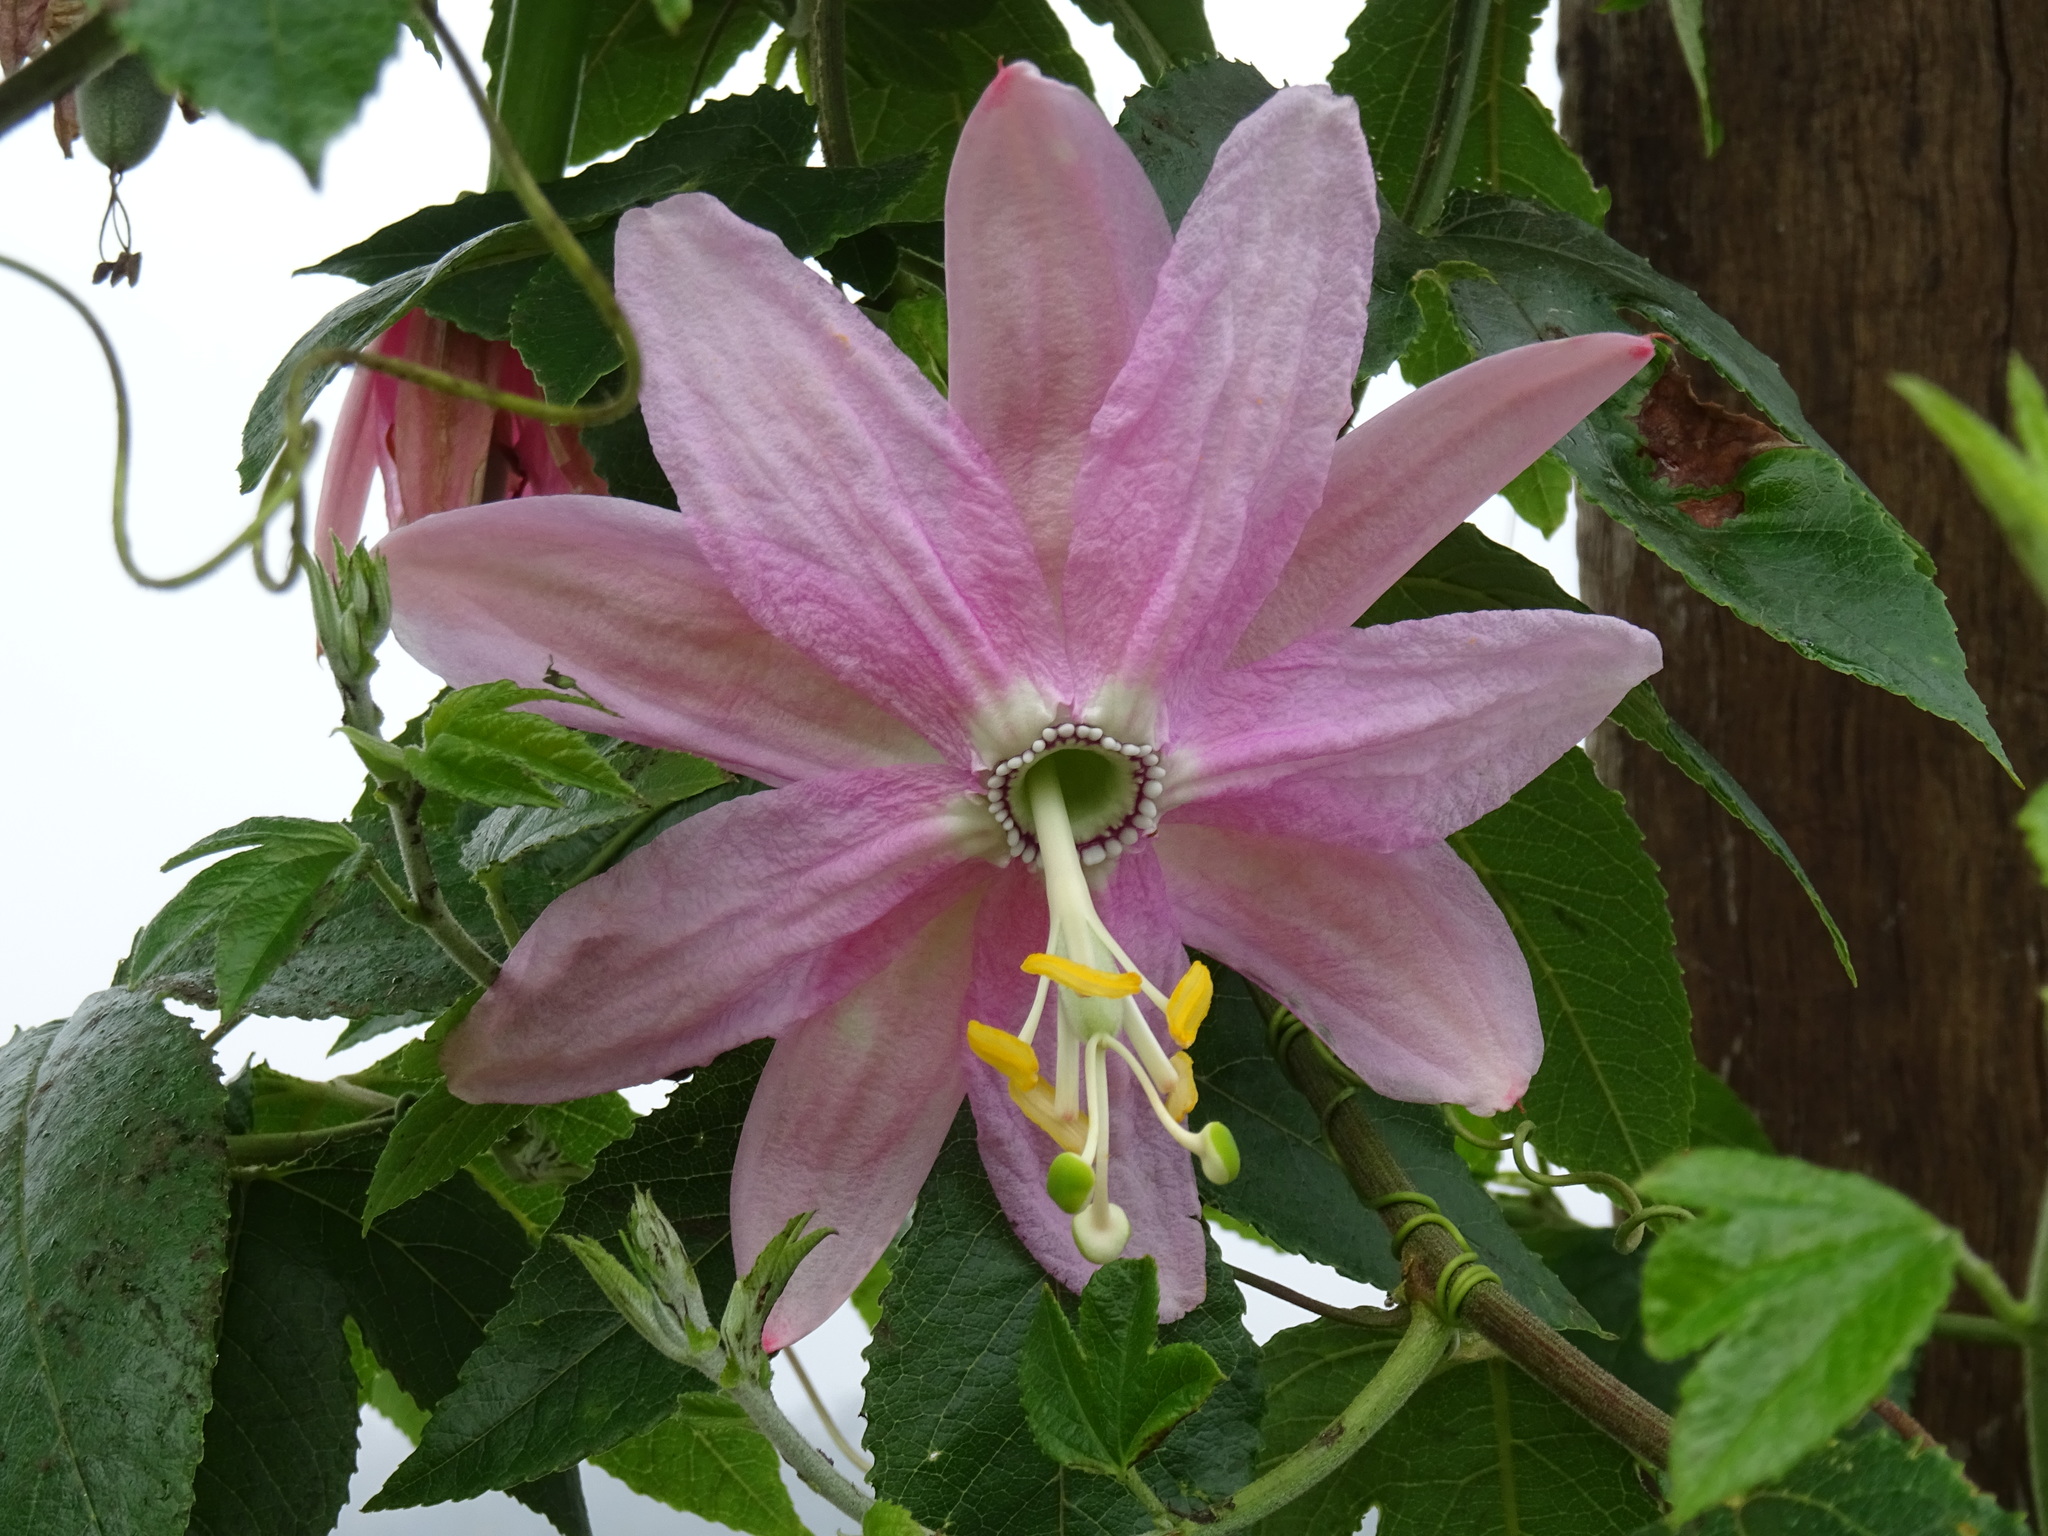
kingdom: Plantae
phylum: Tracheophyta
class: Magnoliopsida
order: Malpighiales
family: Passifloraceae
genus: Passiflora
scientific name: Passiflora tarminiana
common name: Banana poka
